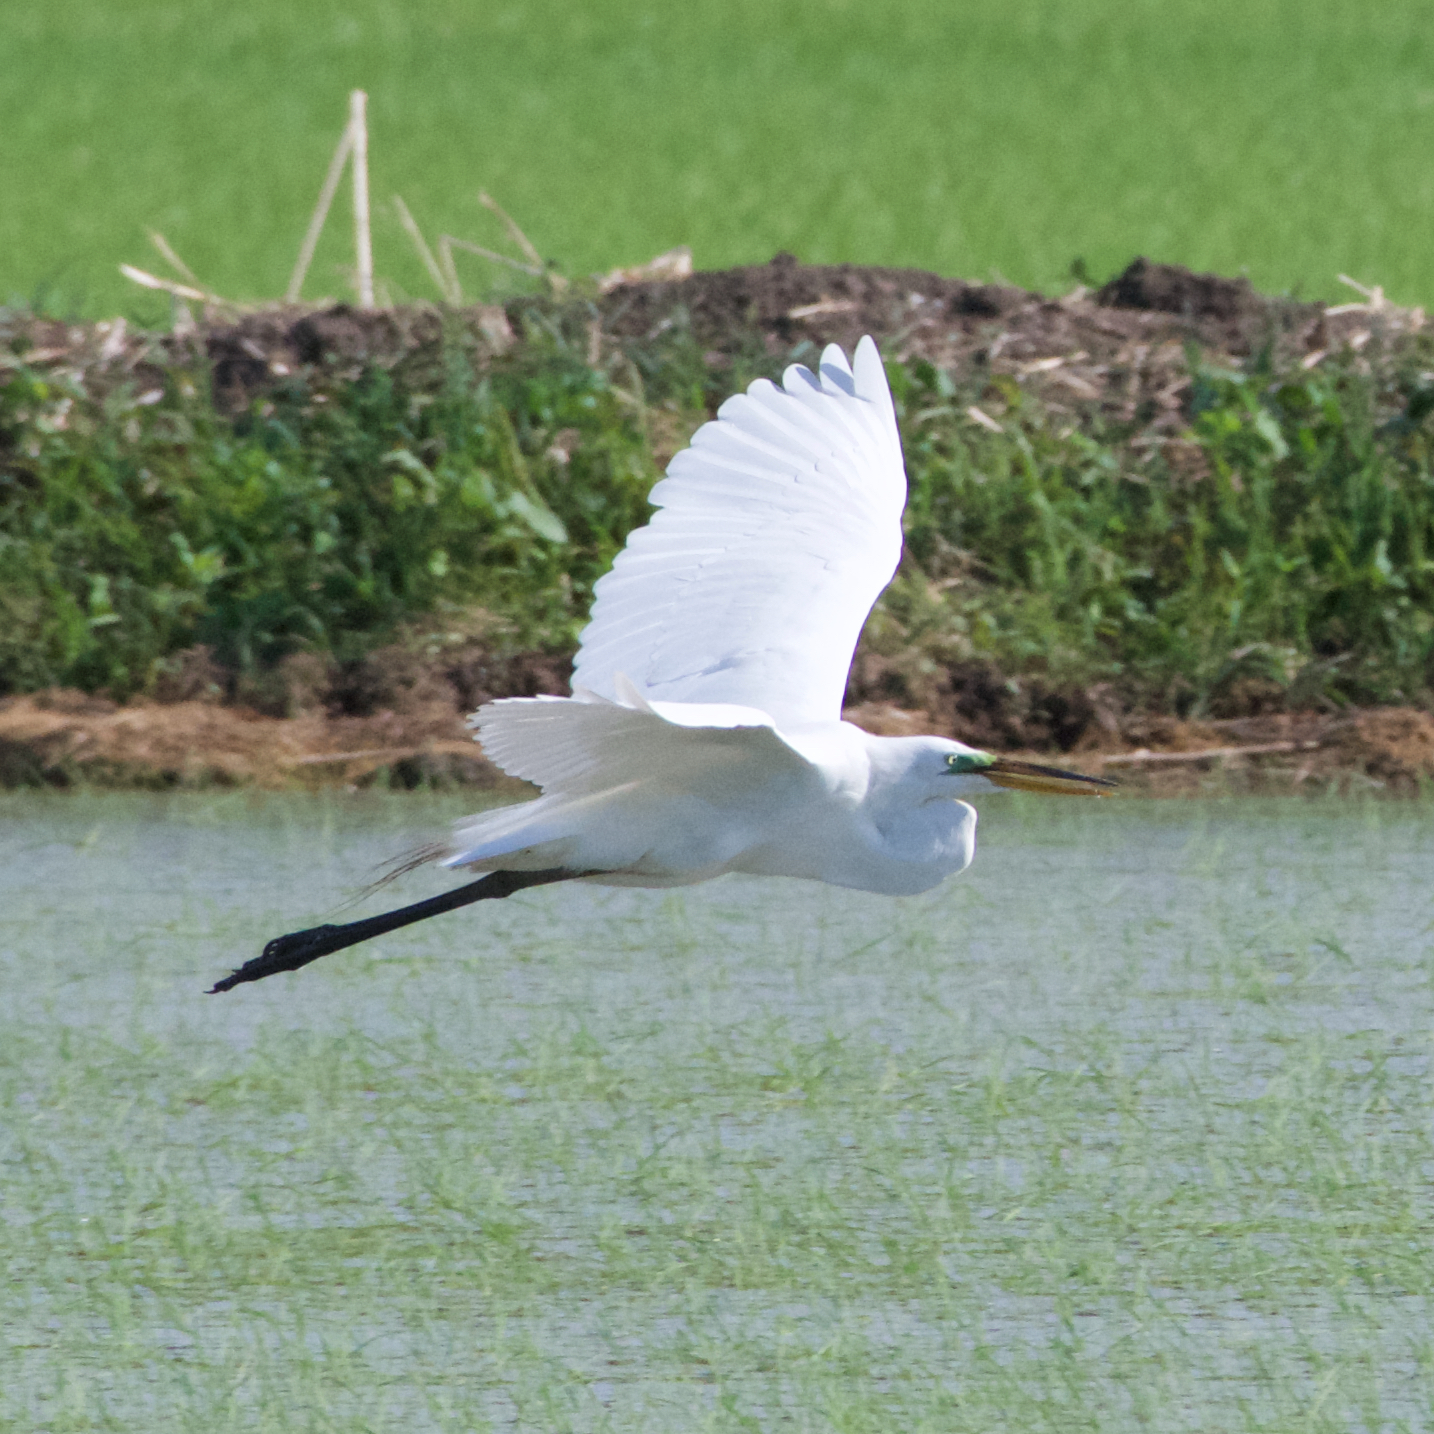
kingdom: Animalia
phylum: Chordata
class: Aves
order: Pelecaniformes
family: Ardeidae
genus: Ardea
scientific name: Ardea alba
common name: Great egret
